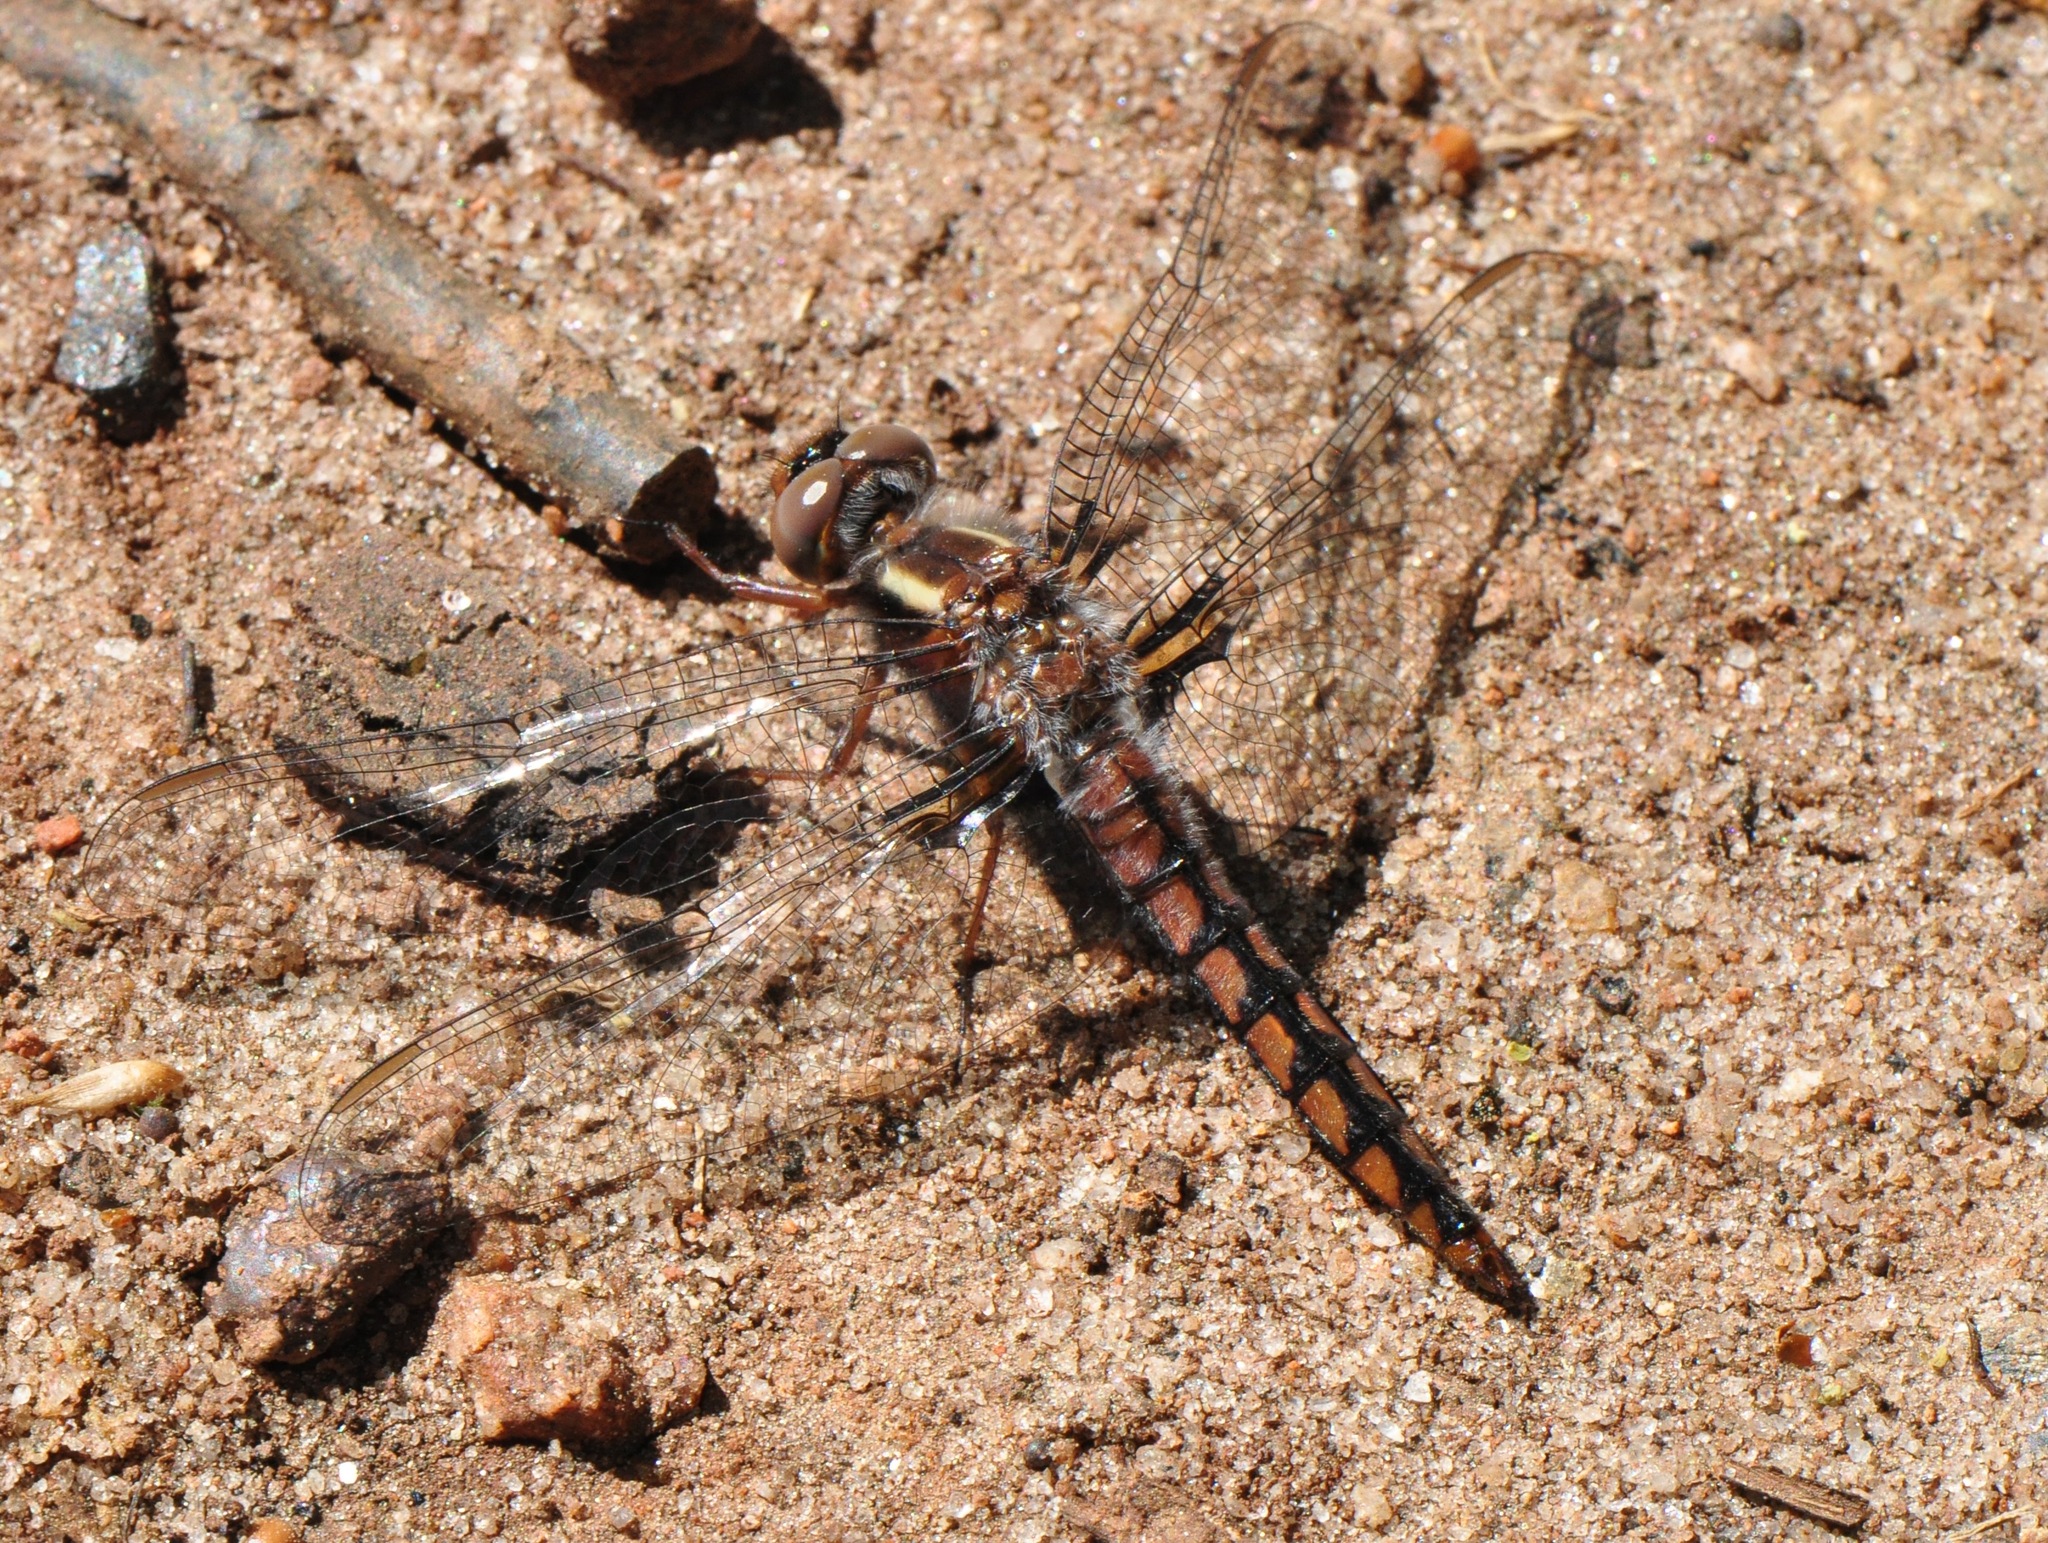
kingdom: Animalia
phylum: Arthropoda
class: Insecta
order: Odonata
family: Libellulidae
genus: Ladona
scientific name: Ladona deplanata
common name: Blue corporal
